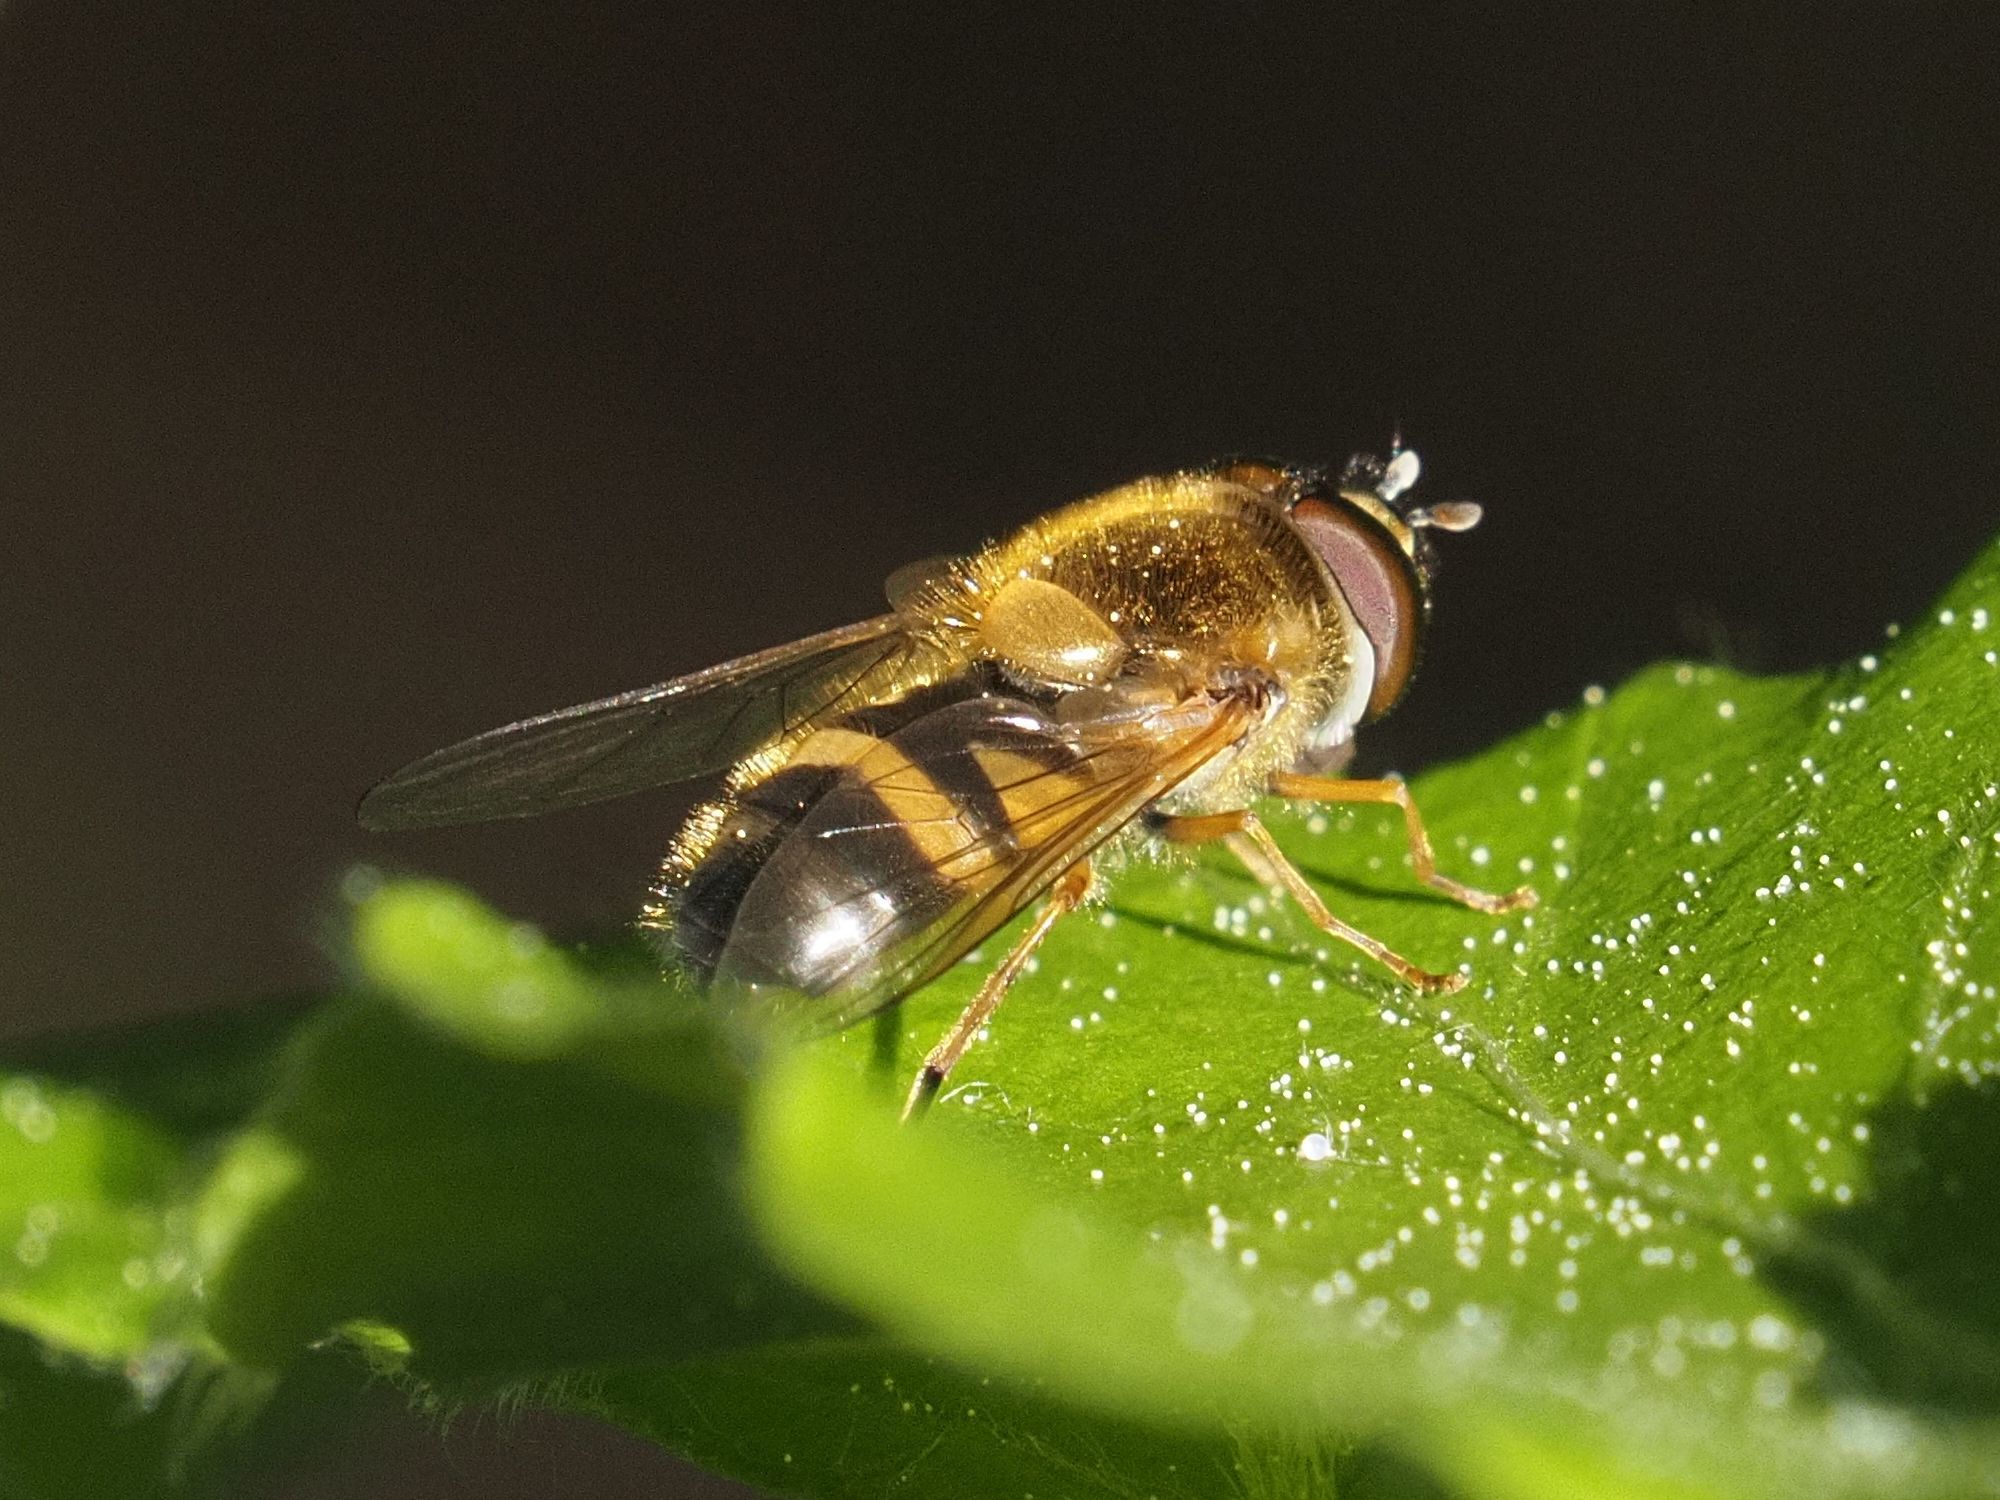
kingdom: Animalia
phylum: Arthropoda
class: Insecta
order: Diptera
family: Syrphidae
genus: Epistrophe
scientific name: Epistrophe eligans
